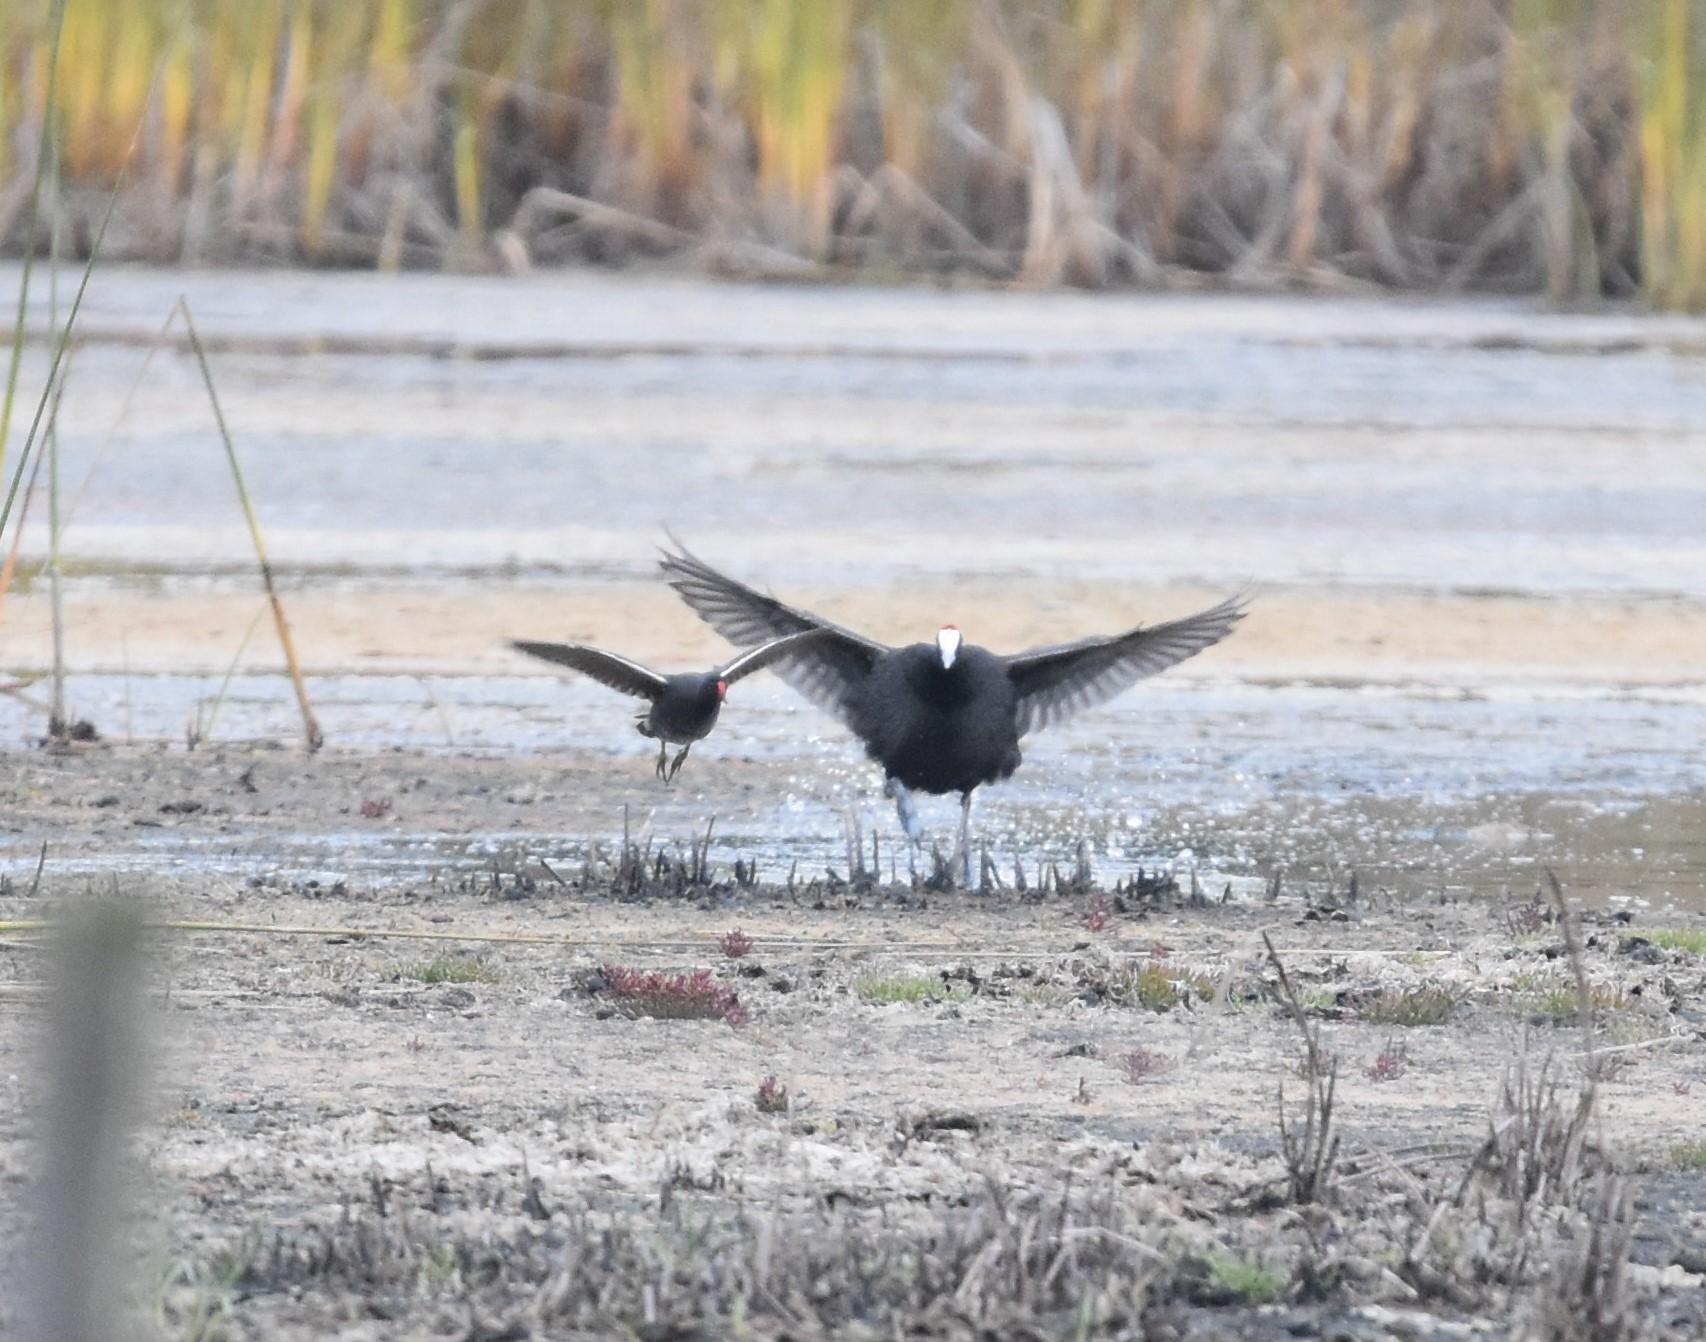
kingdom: Animalia
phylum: Chordata
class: Aves
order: Gruiformes
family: Rallidae
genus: Fulica
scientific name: Fulica cristata
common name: Red-knobbed coot
